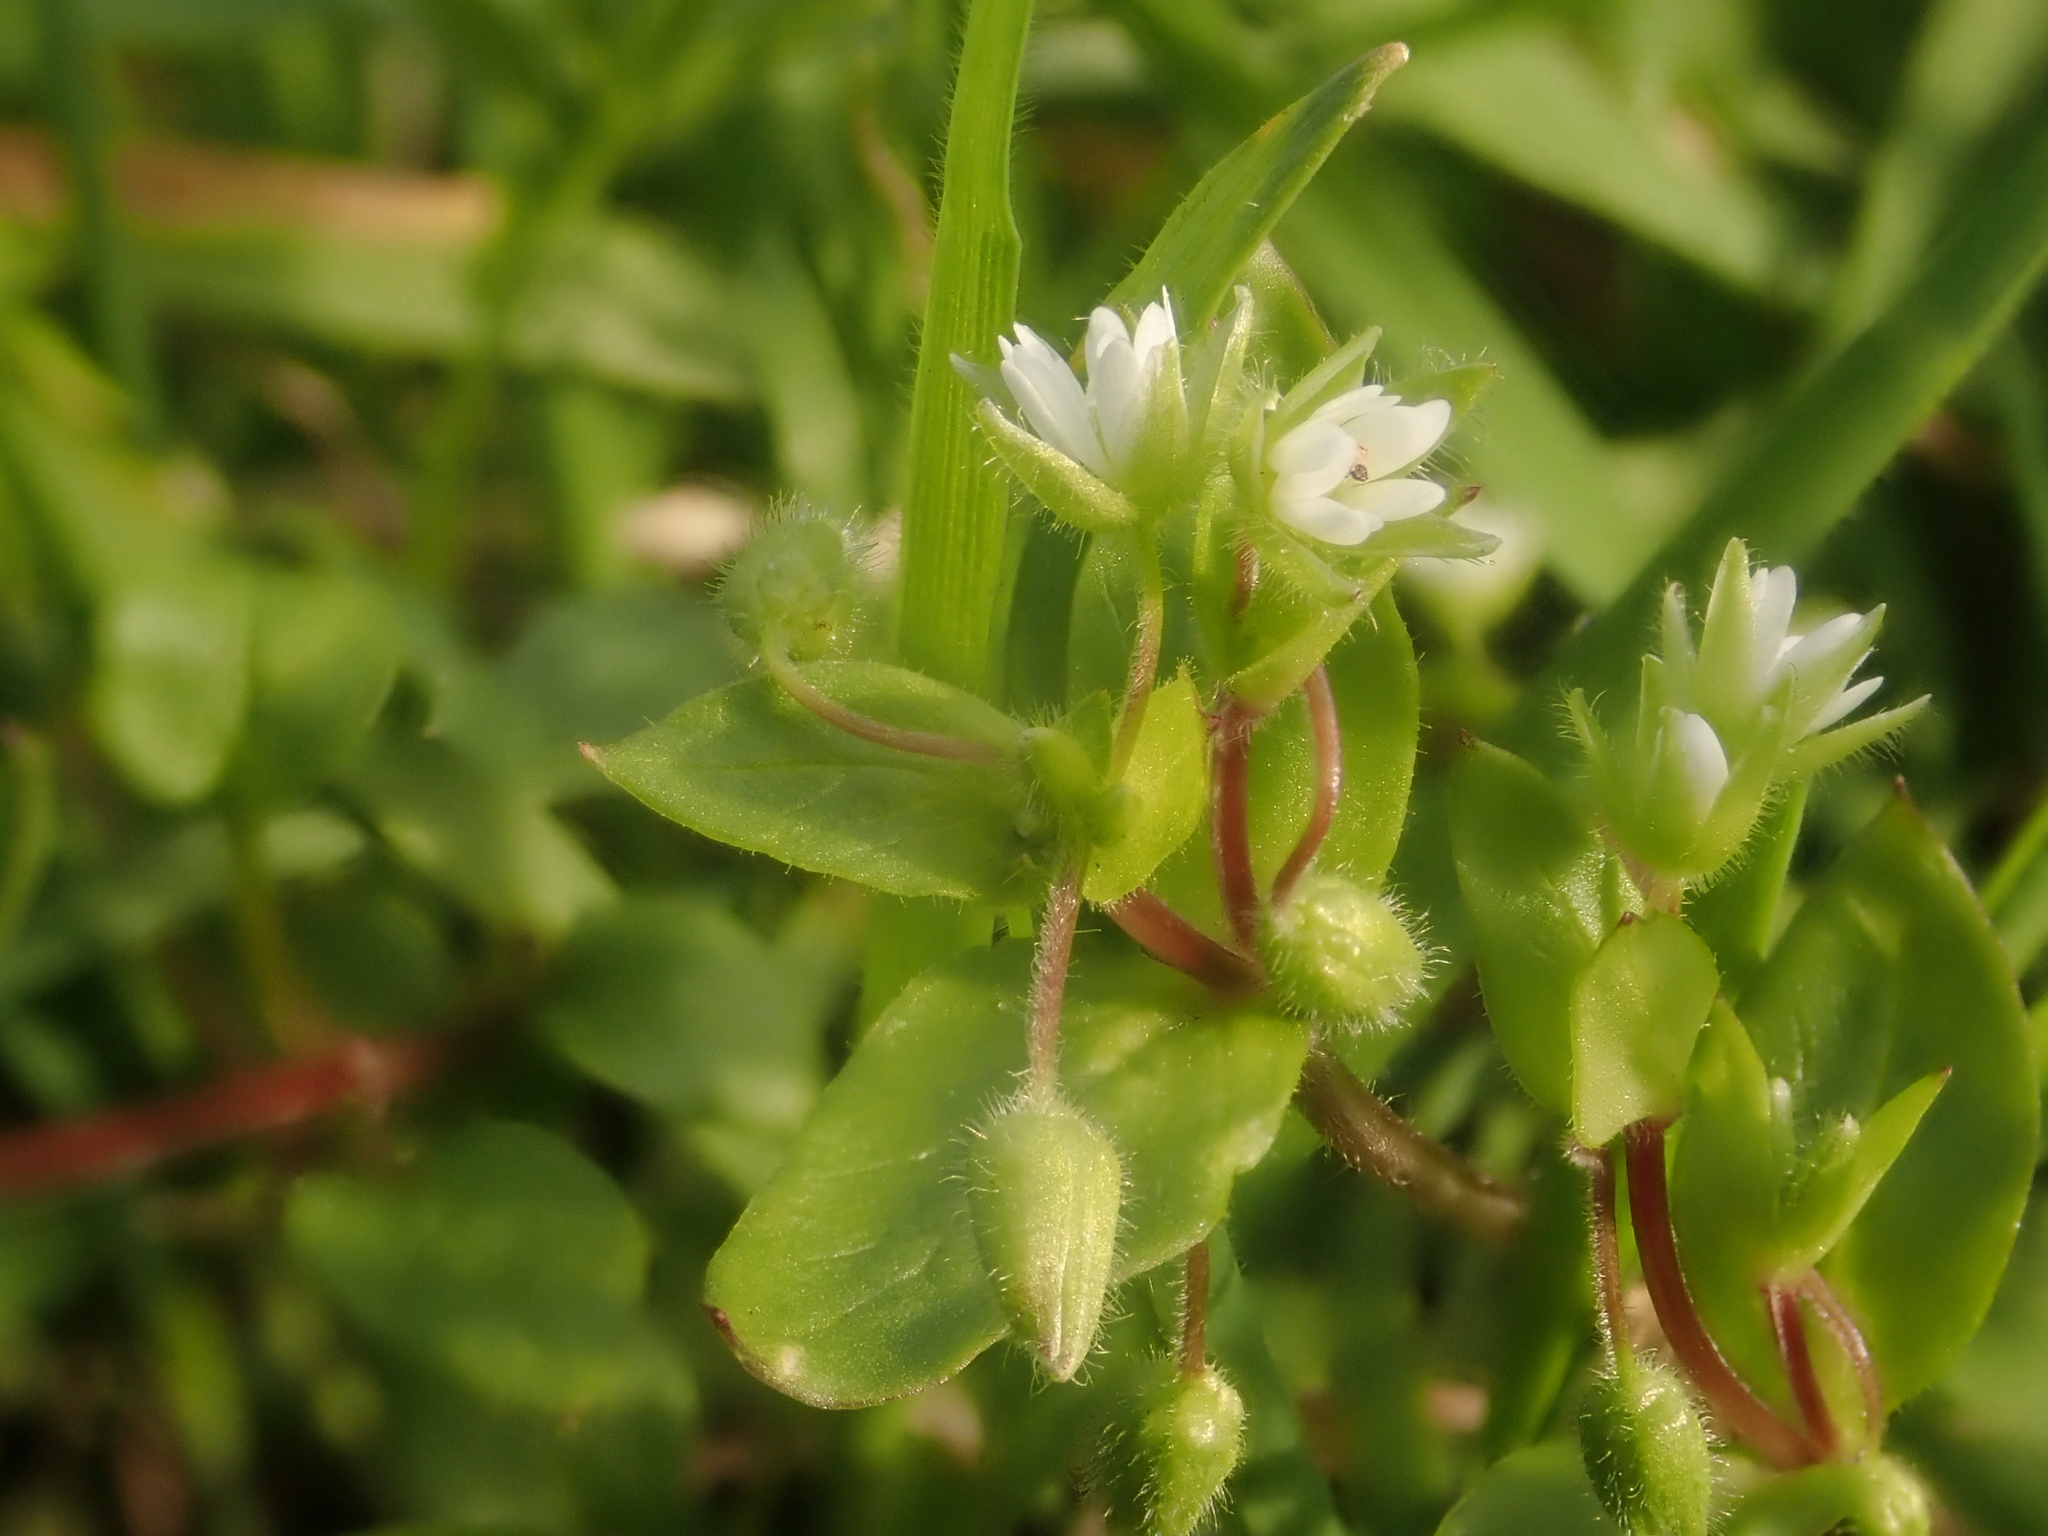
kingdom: Plantae
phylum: Tracheophyta
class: Magnoliopsida
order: Caryophyllales
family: Caryophyllaceae
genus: Stellaria
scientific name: Stellaria media
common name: Common chickweed
